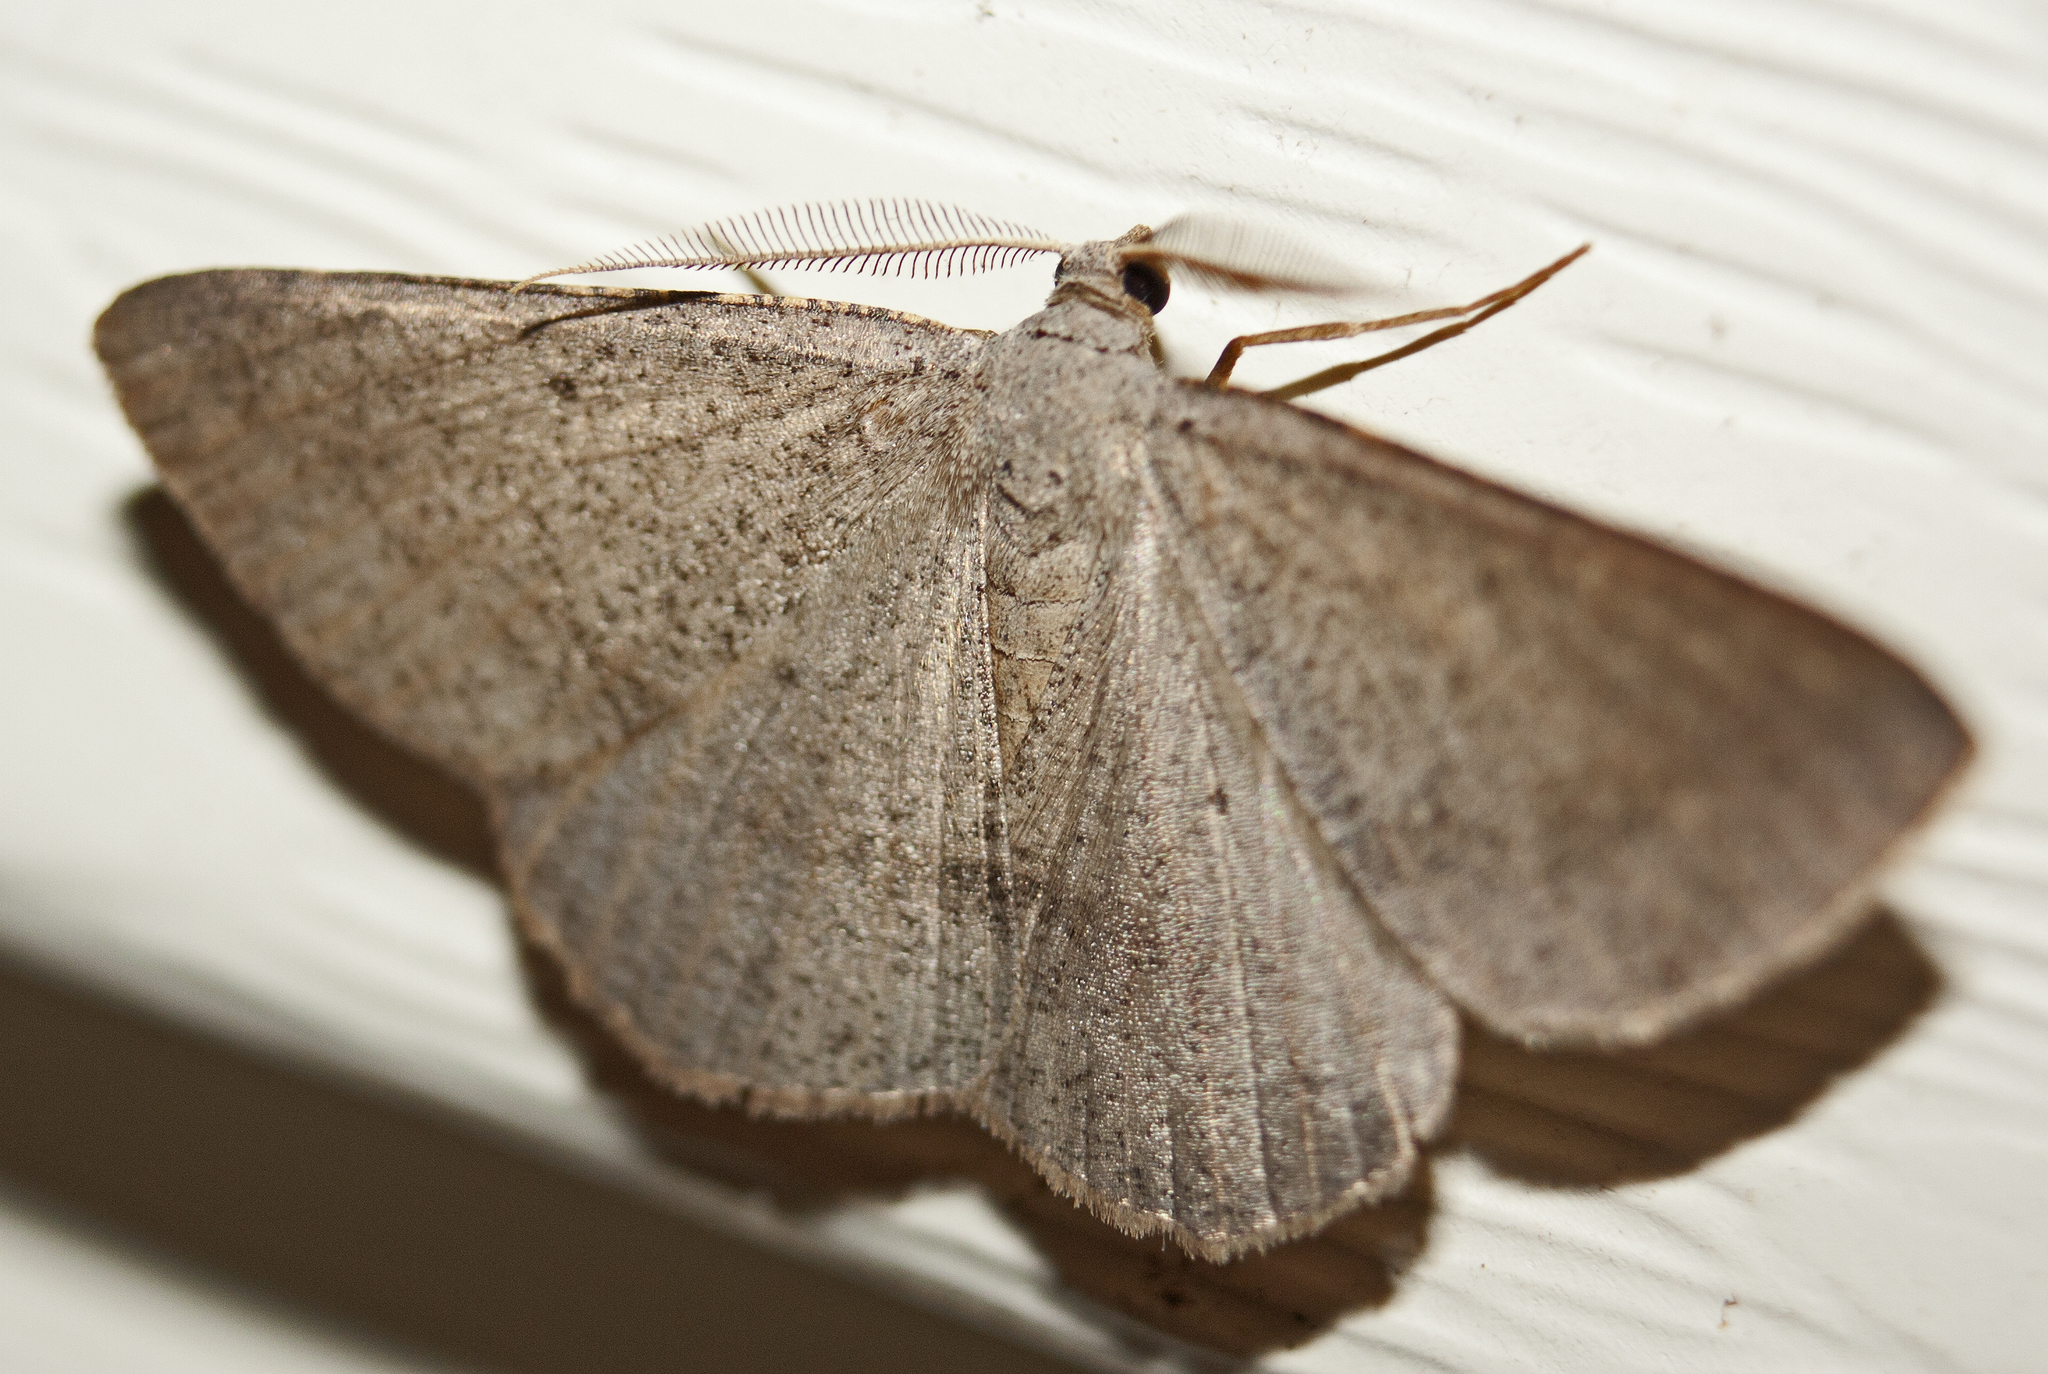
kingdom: Animalia
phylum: Arthropoda
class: Insecta
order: Lepidoptera
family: Geometridae
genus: Isturgia
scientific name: Isturgia
